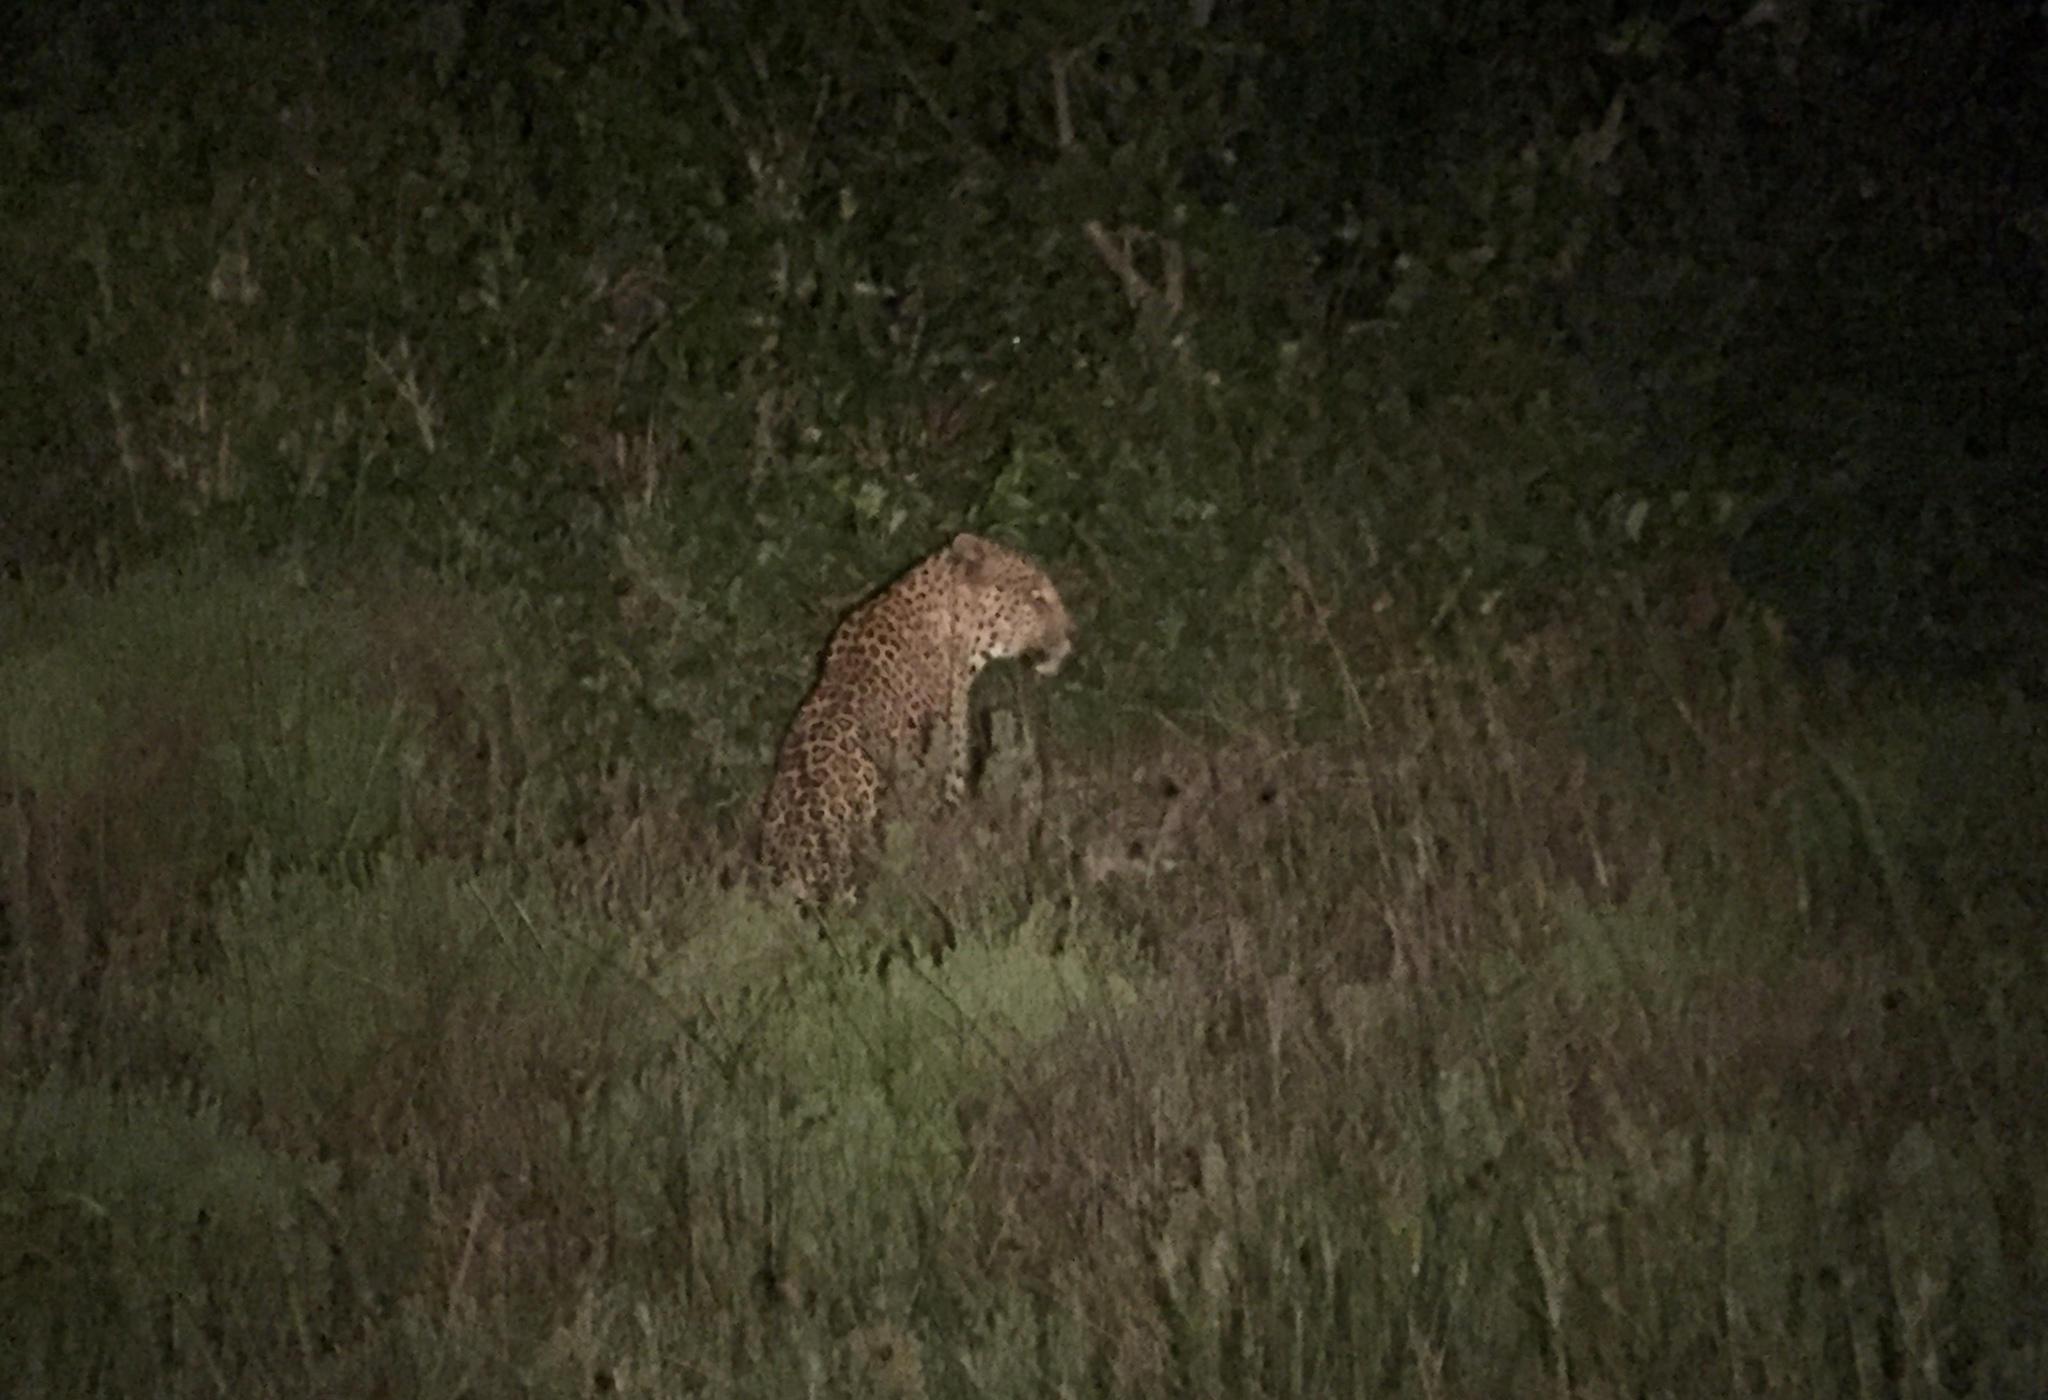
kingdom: Animalia
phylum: Chordata
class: Mammalia
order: Carnivora
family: Felidae
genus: Panthera
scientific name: Panthera pardus
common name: Leopard
